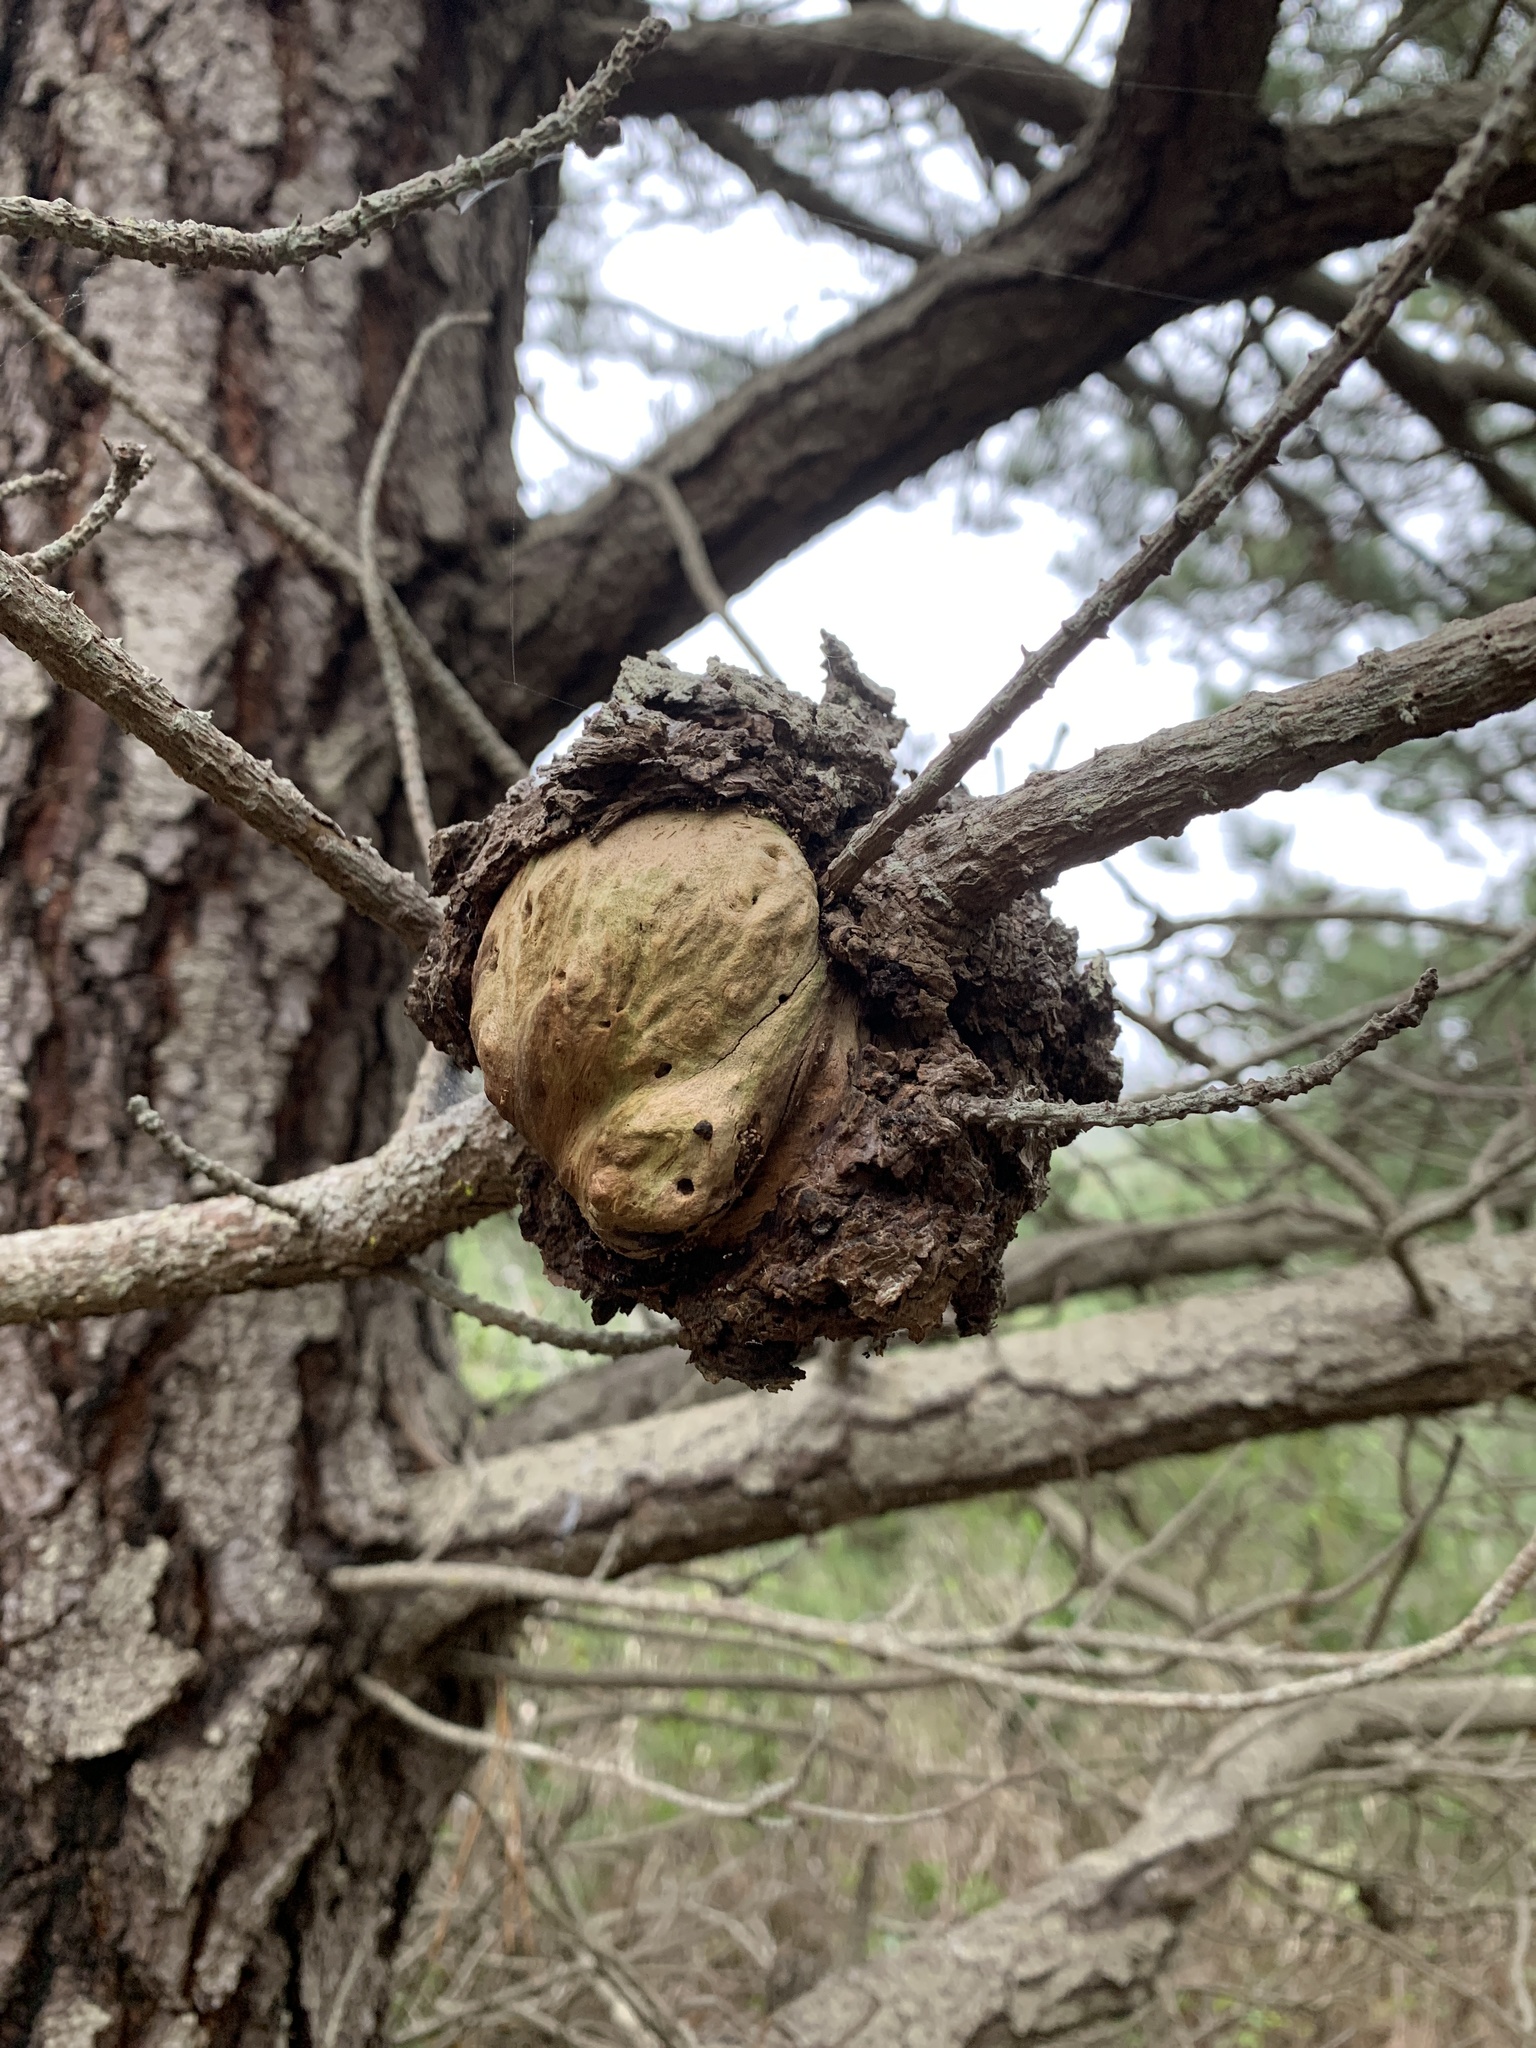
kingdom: Fungi
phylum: Basidiomycota
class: Pucciniomycetes
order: Pucciniales
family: Cronartiaceae
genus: Cronartium
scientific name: Cronartium harknessii
